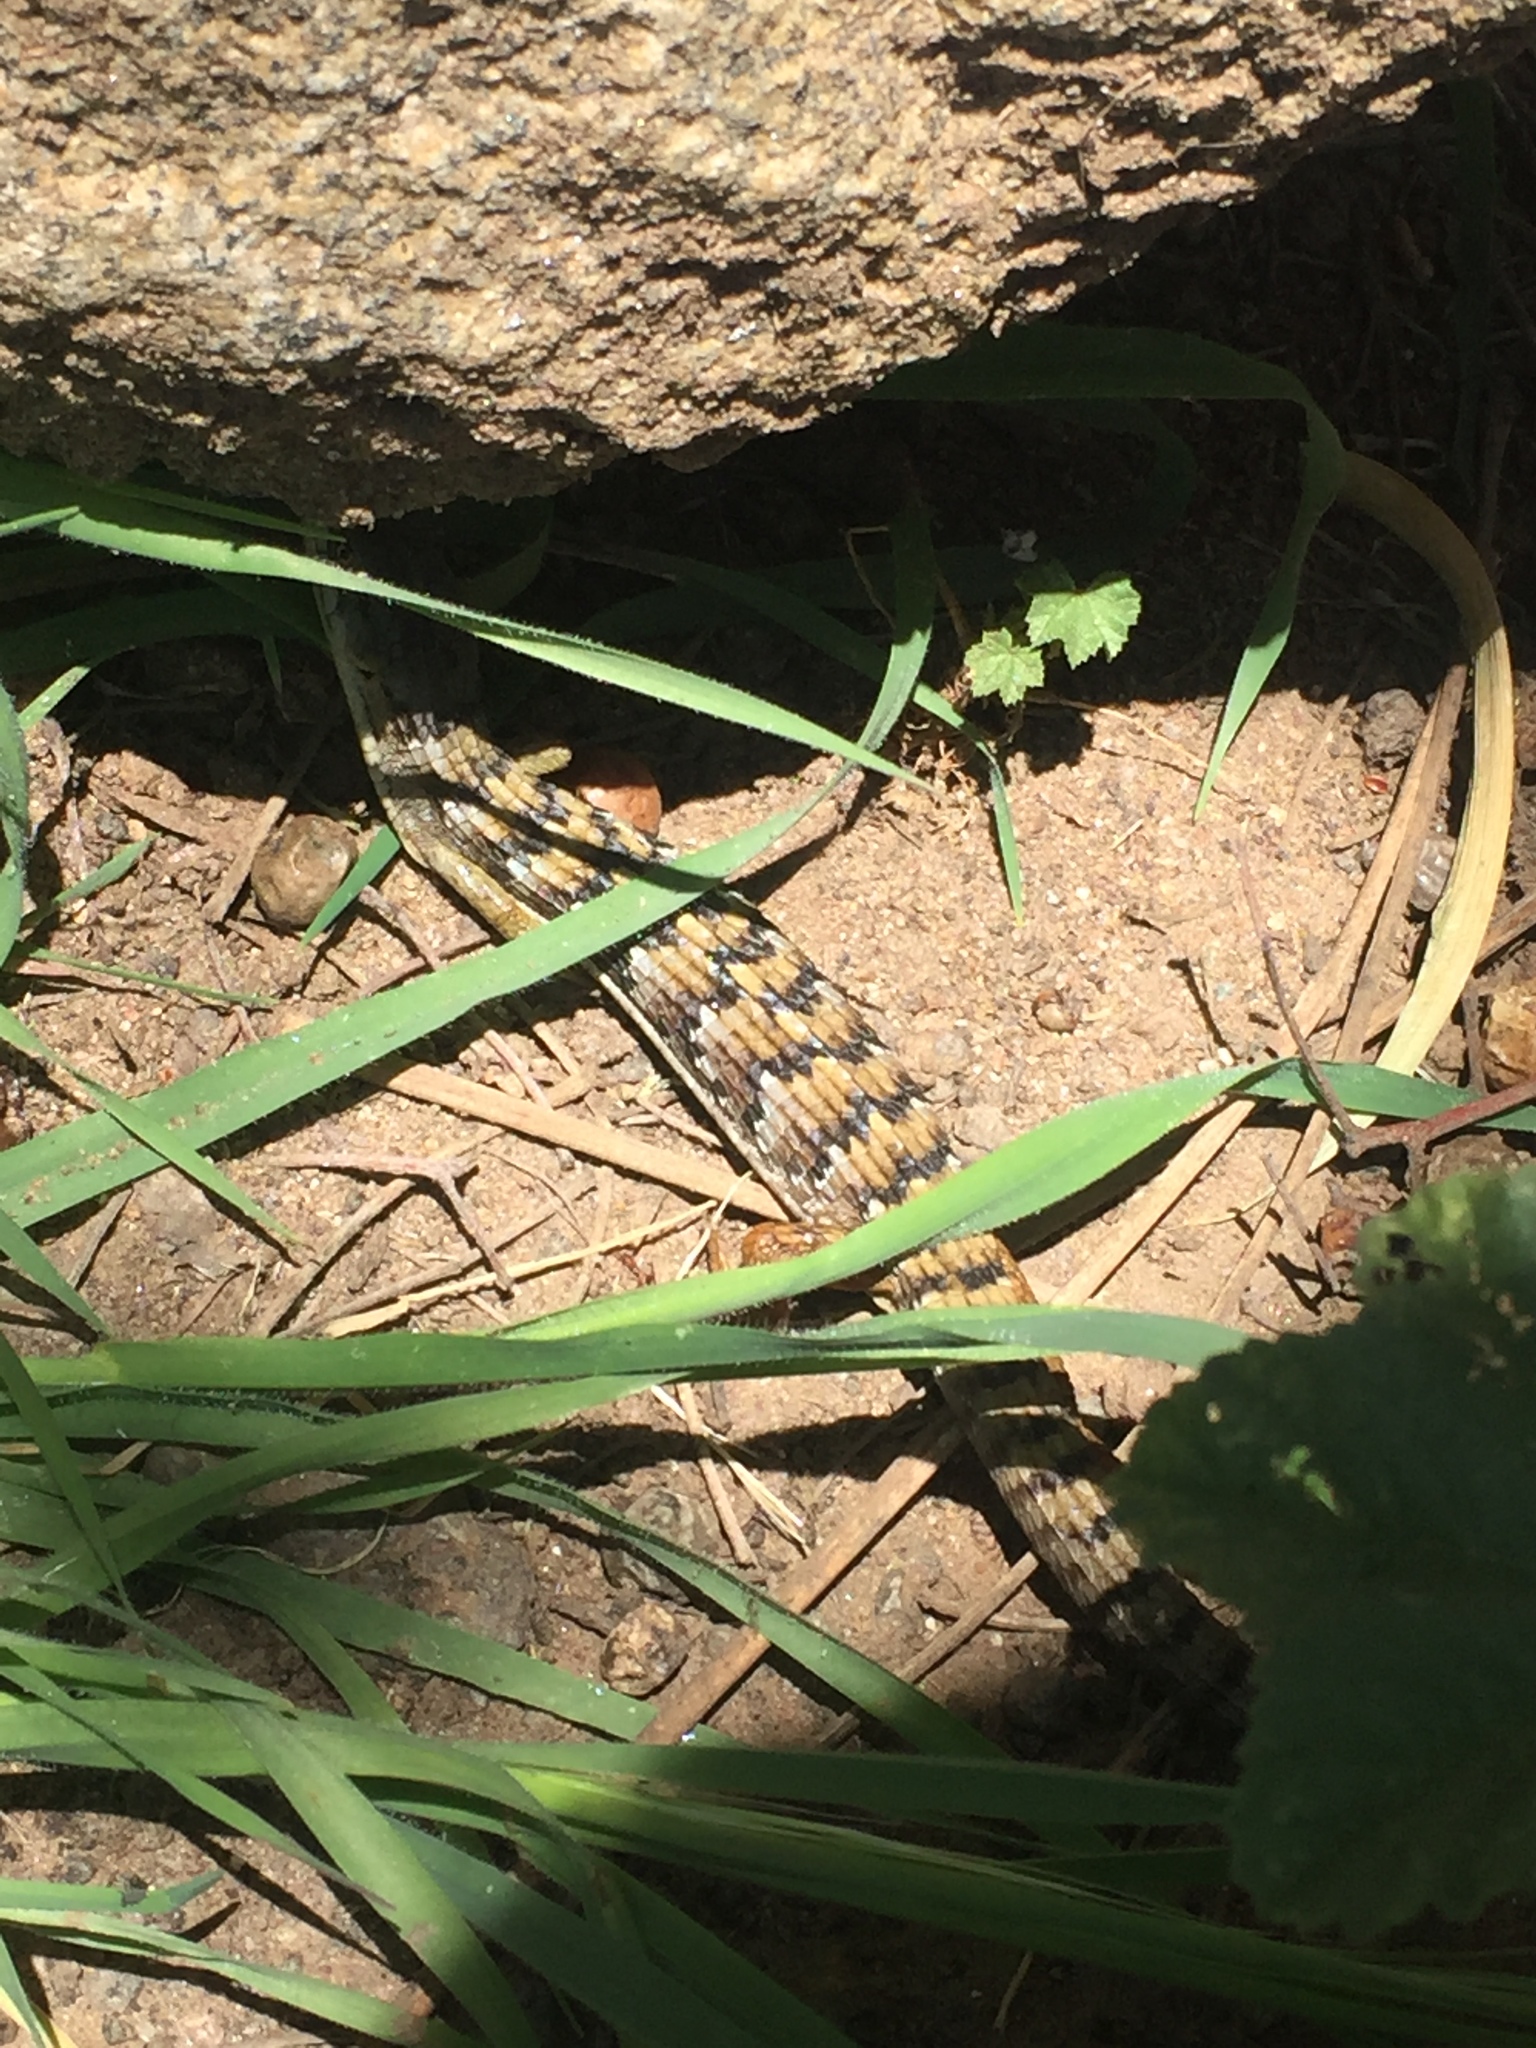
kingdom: Animalia
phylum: Chordata
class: Squamata
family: Anguidae
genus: Elgaria
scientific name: Elgaria multicarinata
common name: Southern alligator lizard
